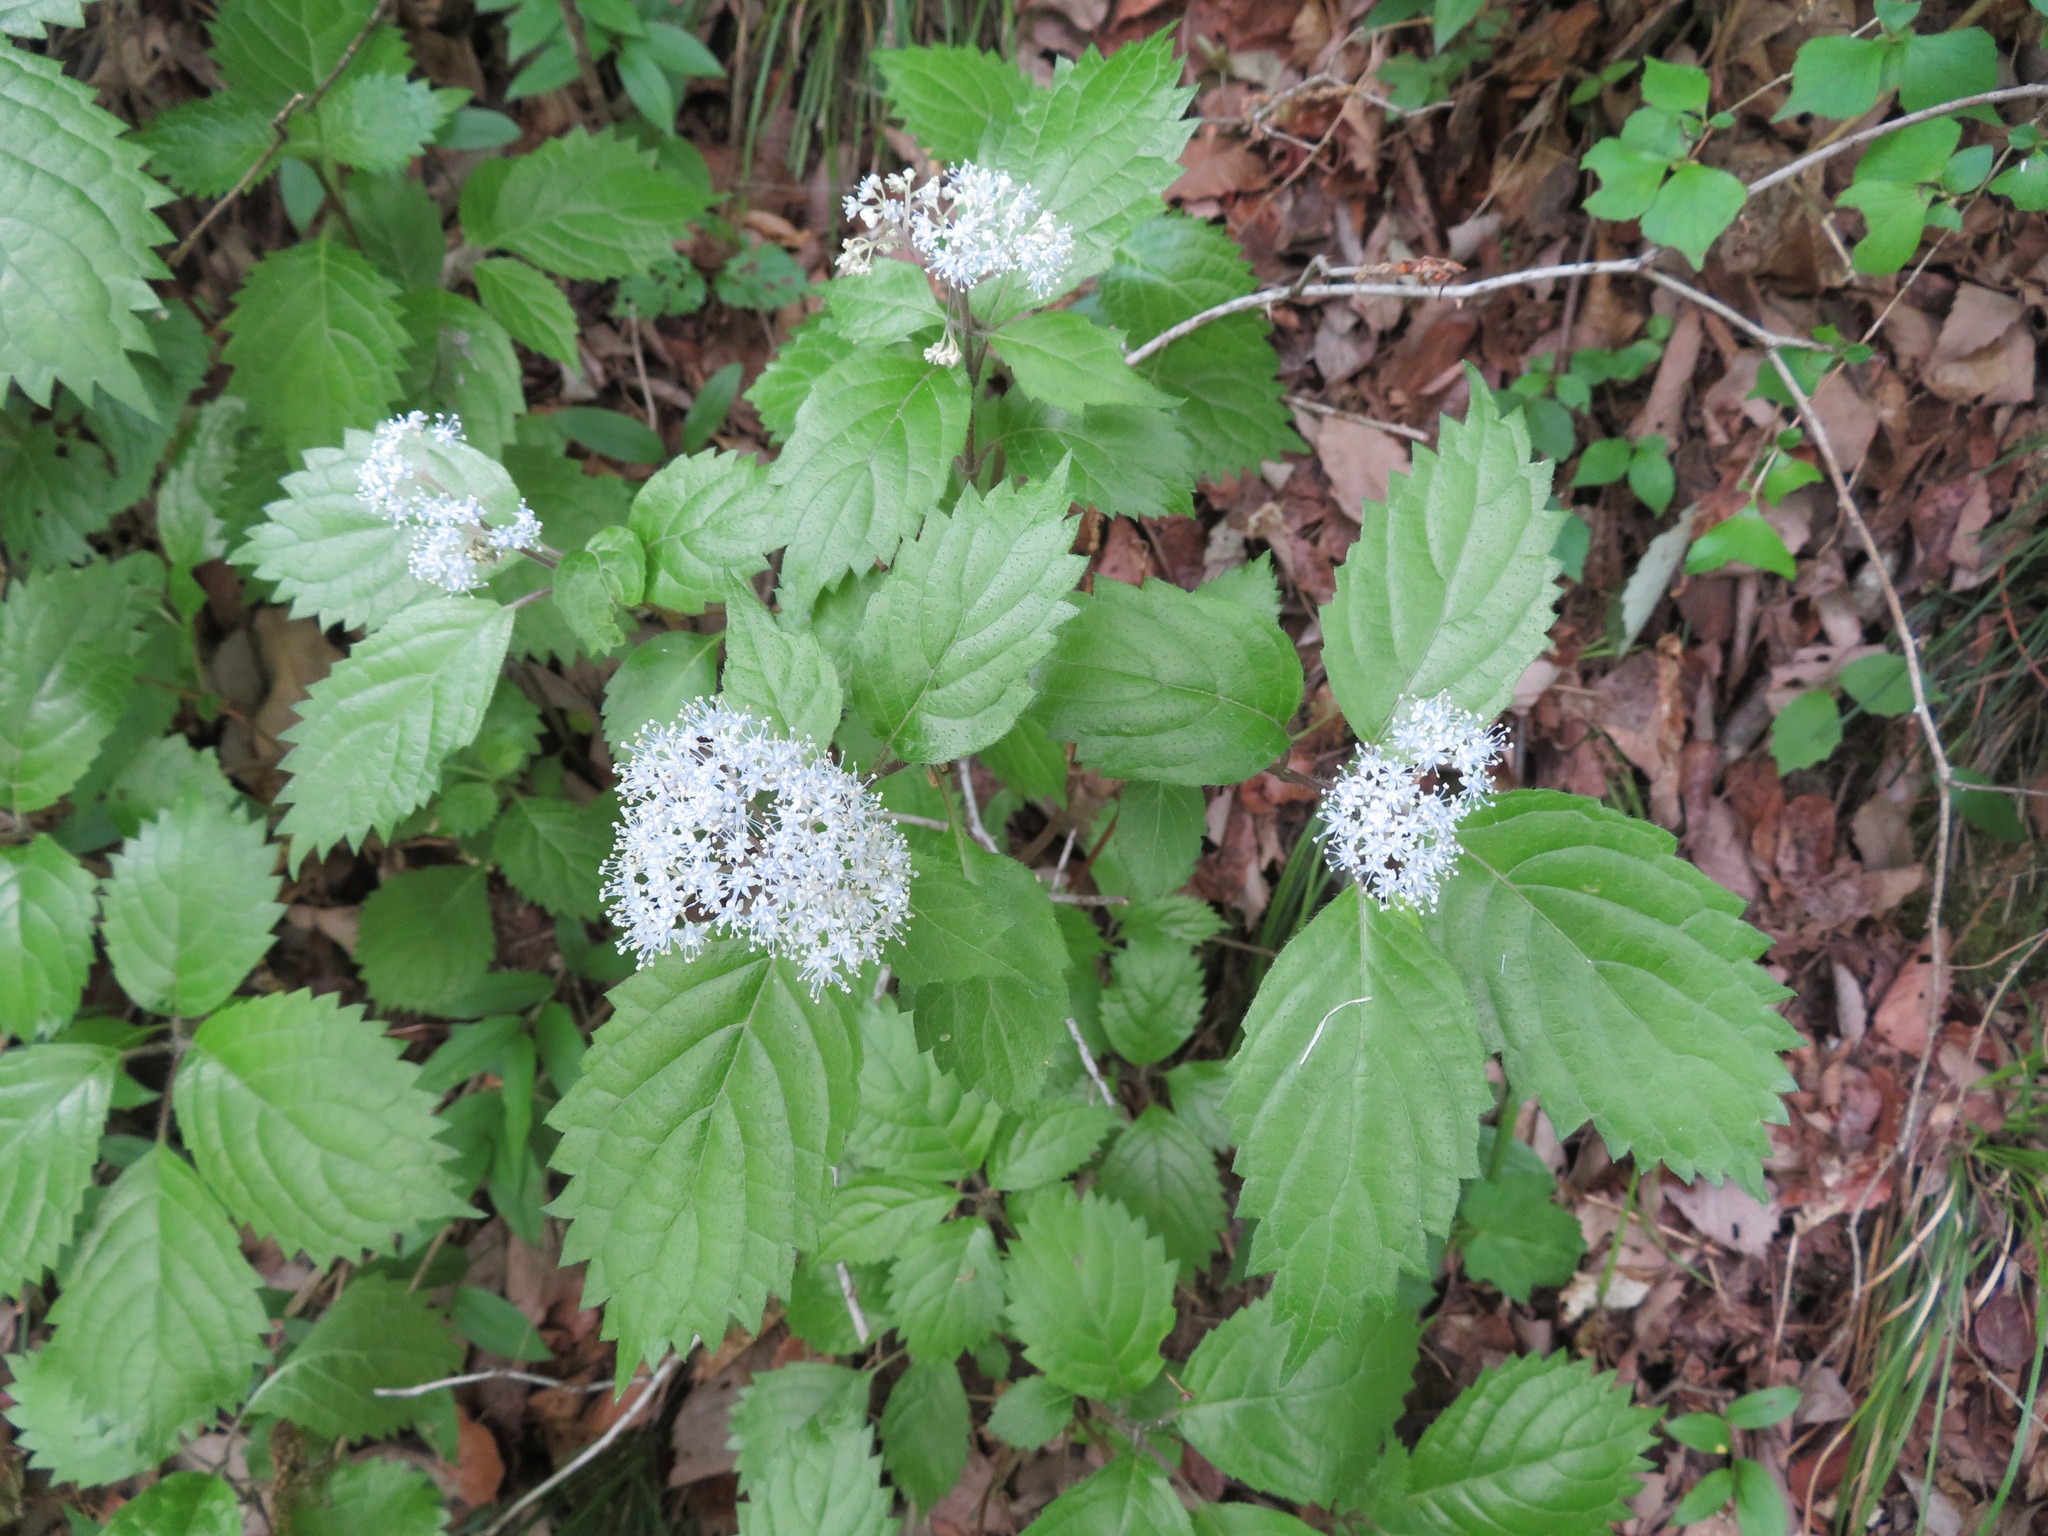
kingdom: Plantae
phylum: Tracheophyta
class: Magnoliopsida
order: Cornales
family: Hydrangeaceae
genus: Hydrangea
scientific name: Hydrangea hirta
